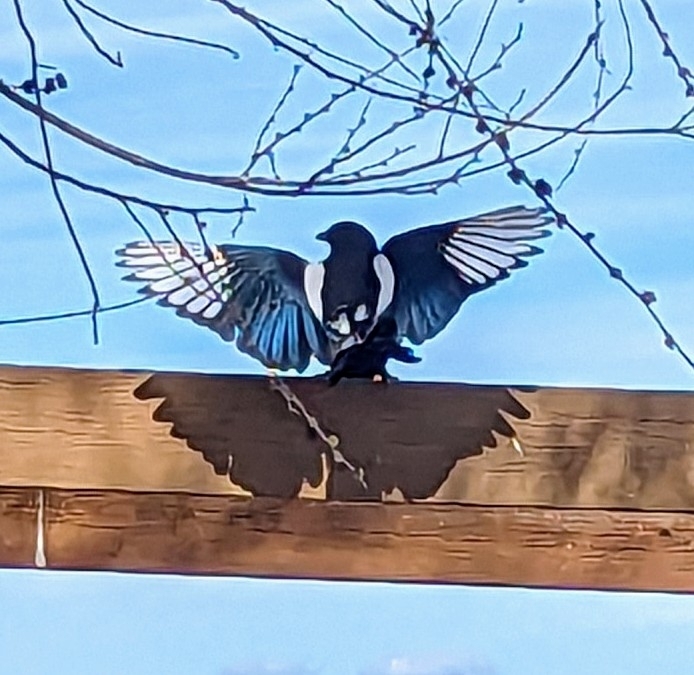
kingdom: Animalia
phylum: Chordata
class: Aves
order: Passeriformes
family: Corvidae
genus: Pica
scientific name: Pica hudsonia
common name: Black-billed magpie
